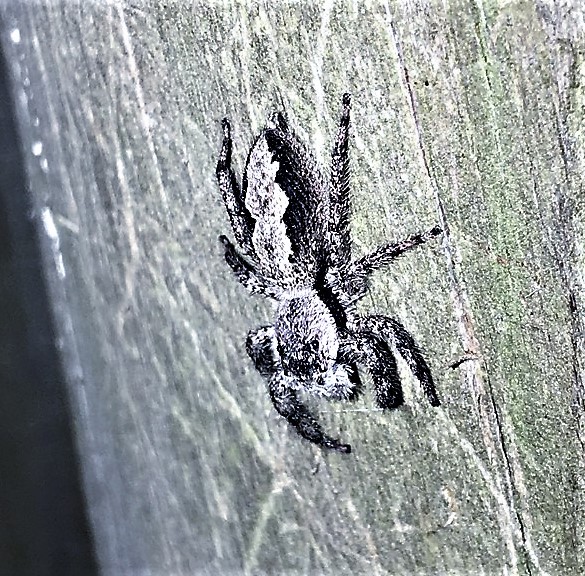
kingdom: Animalia
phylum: Arthropoda
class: Arachnida
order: Araneae
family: Salticidae
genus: Platycryptus
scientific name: Platycryptus undatus
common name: Tan jumping spider
